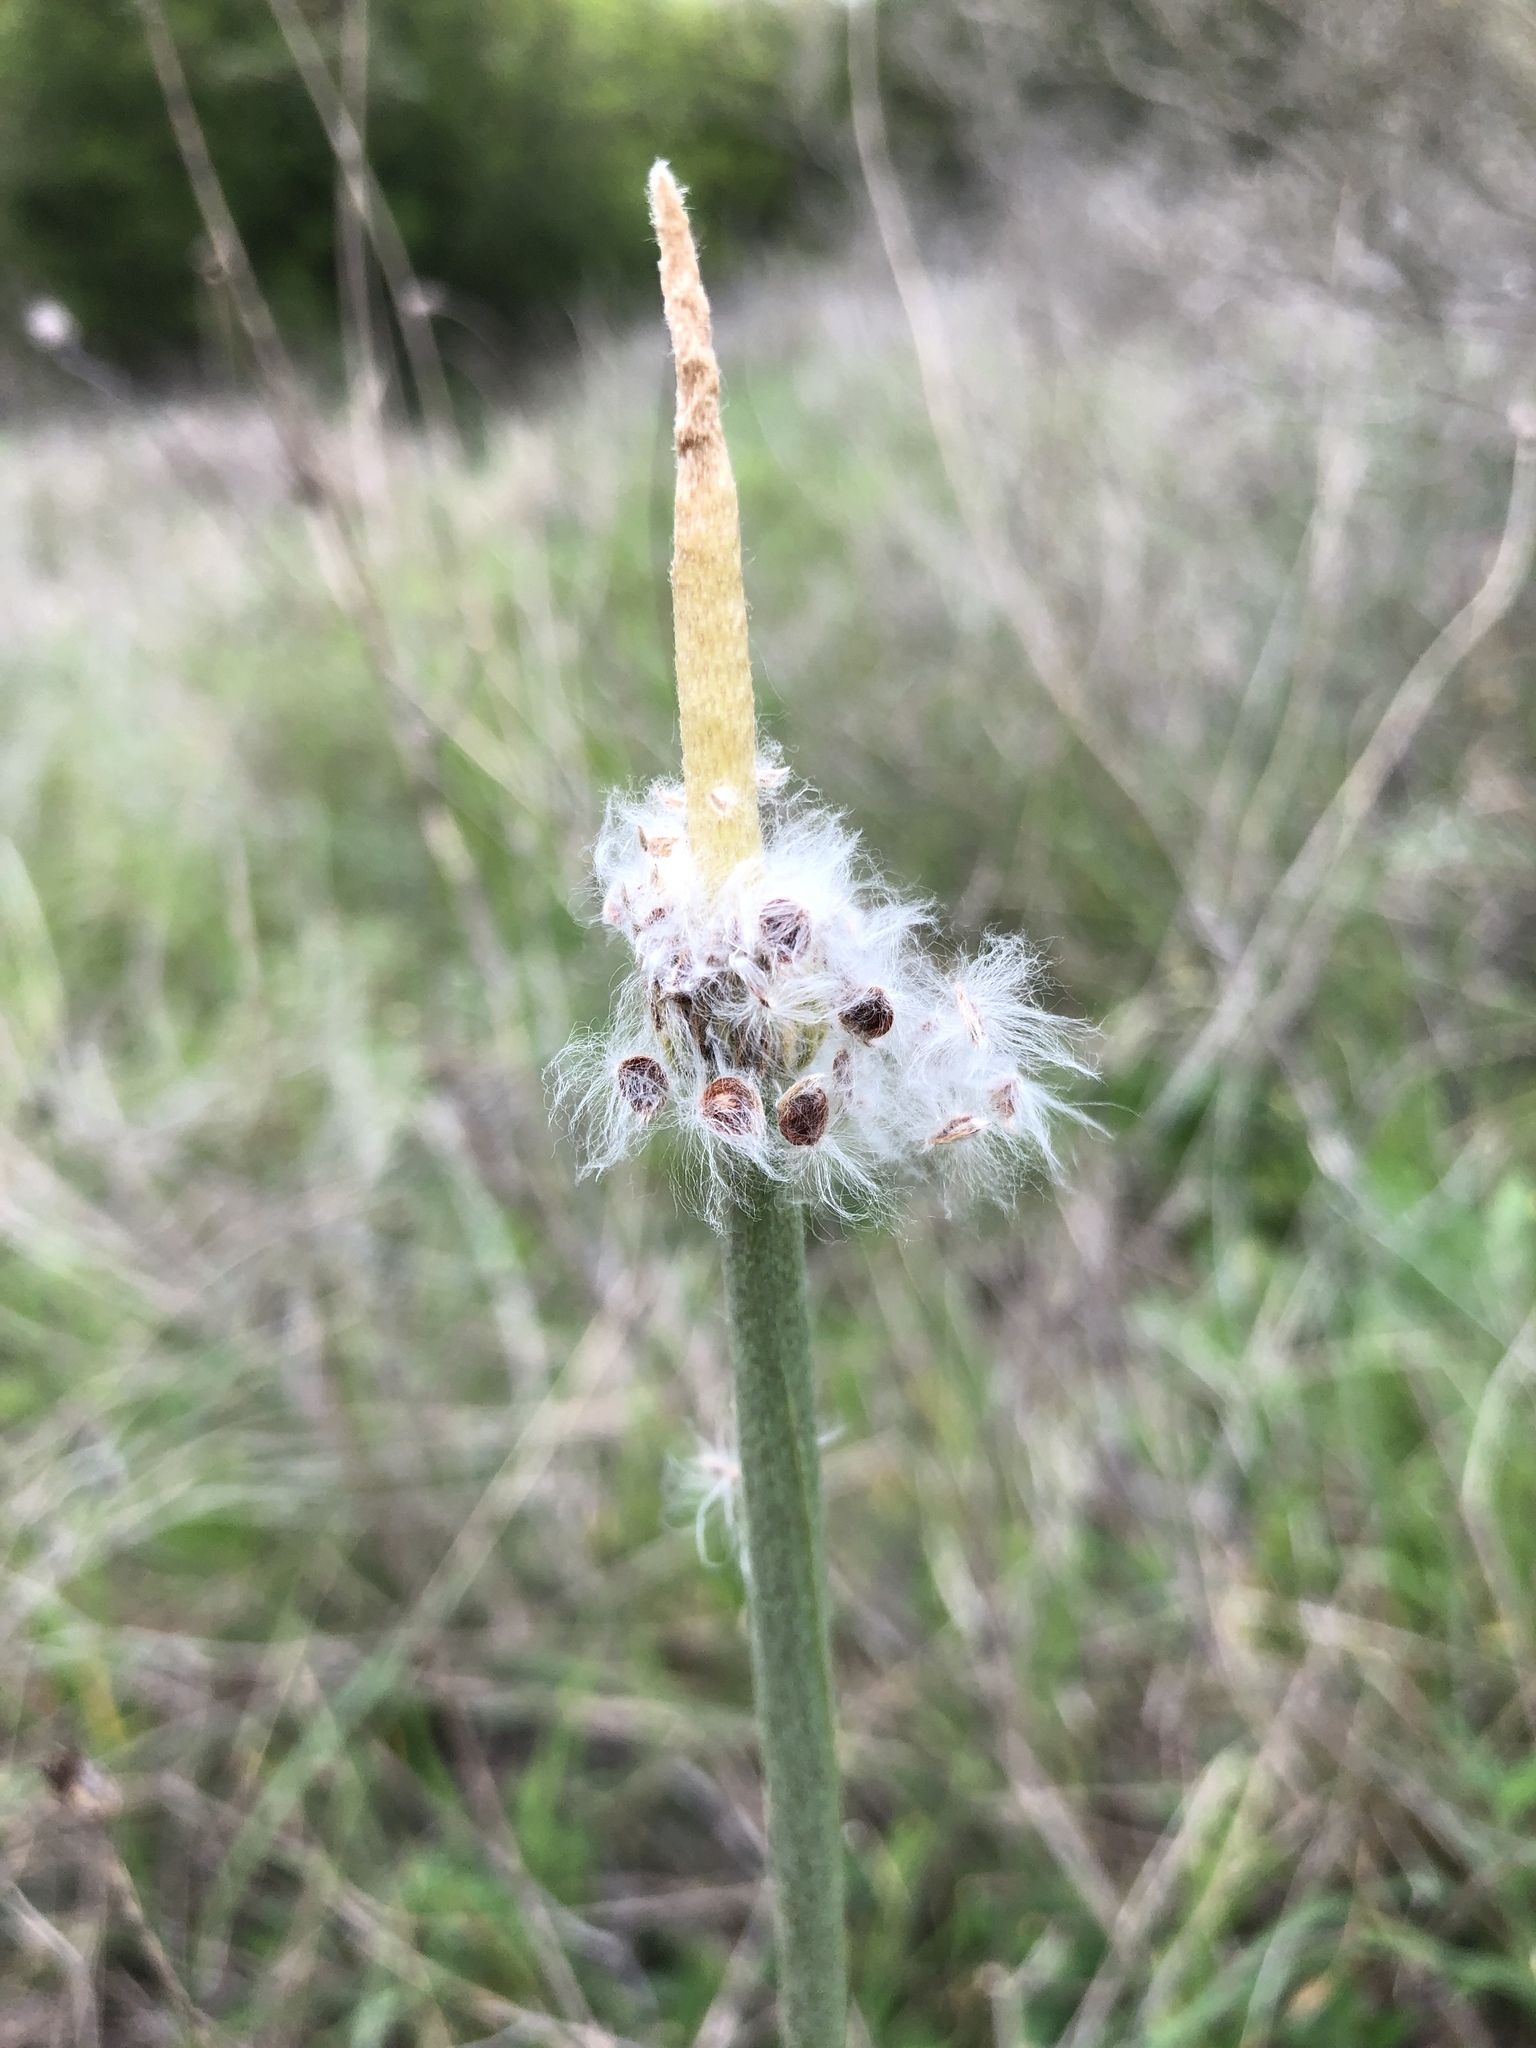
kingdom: Plantae
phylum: Tracheophyta
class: Magnoliopsida
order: Ranunculales
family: Ranunculaceae
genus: Anemone
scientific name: Anemone berlandieri
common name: Ten-petal anemone
